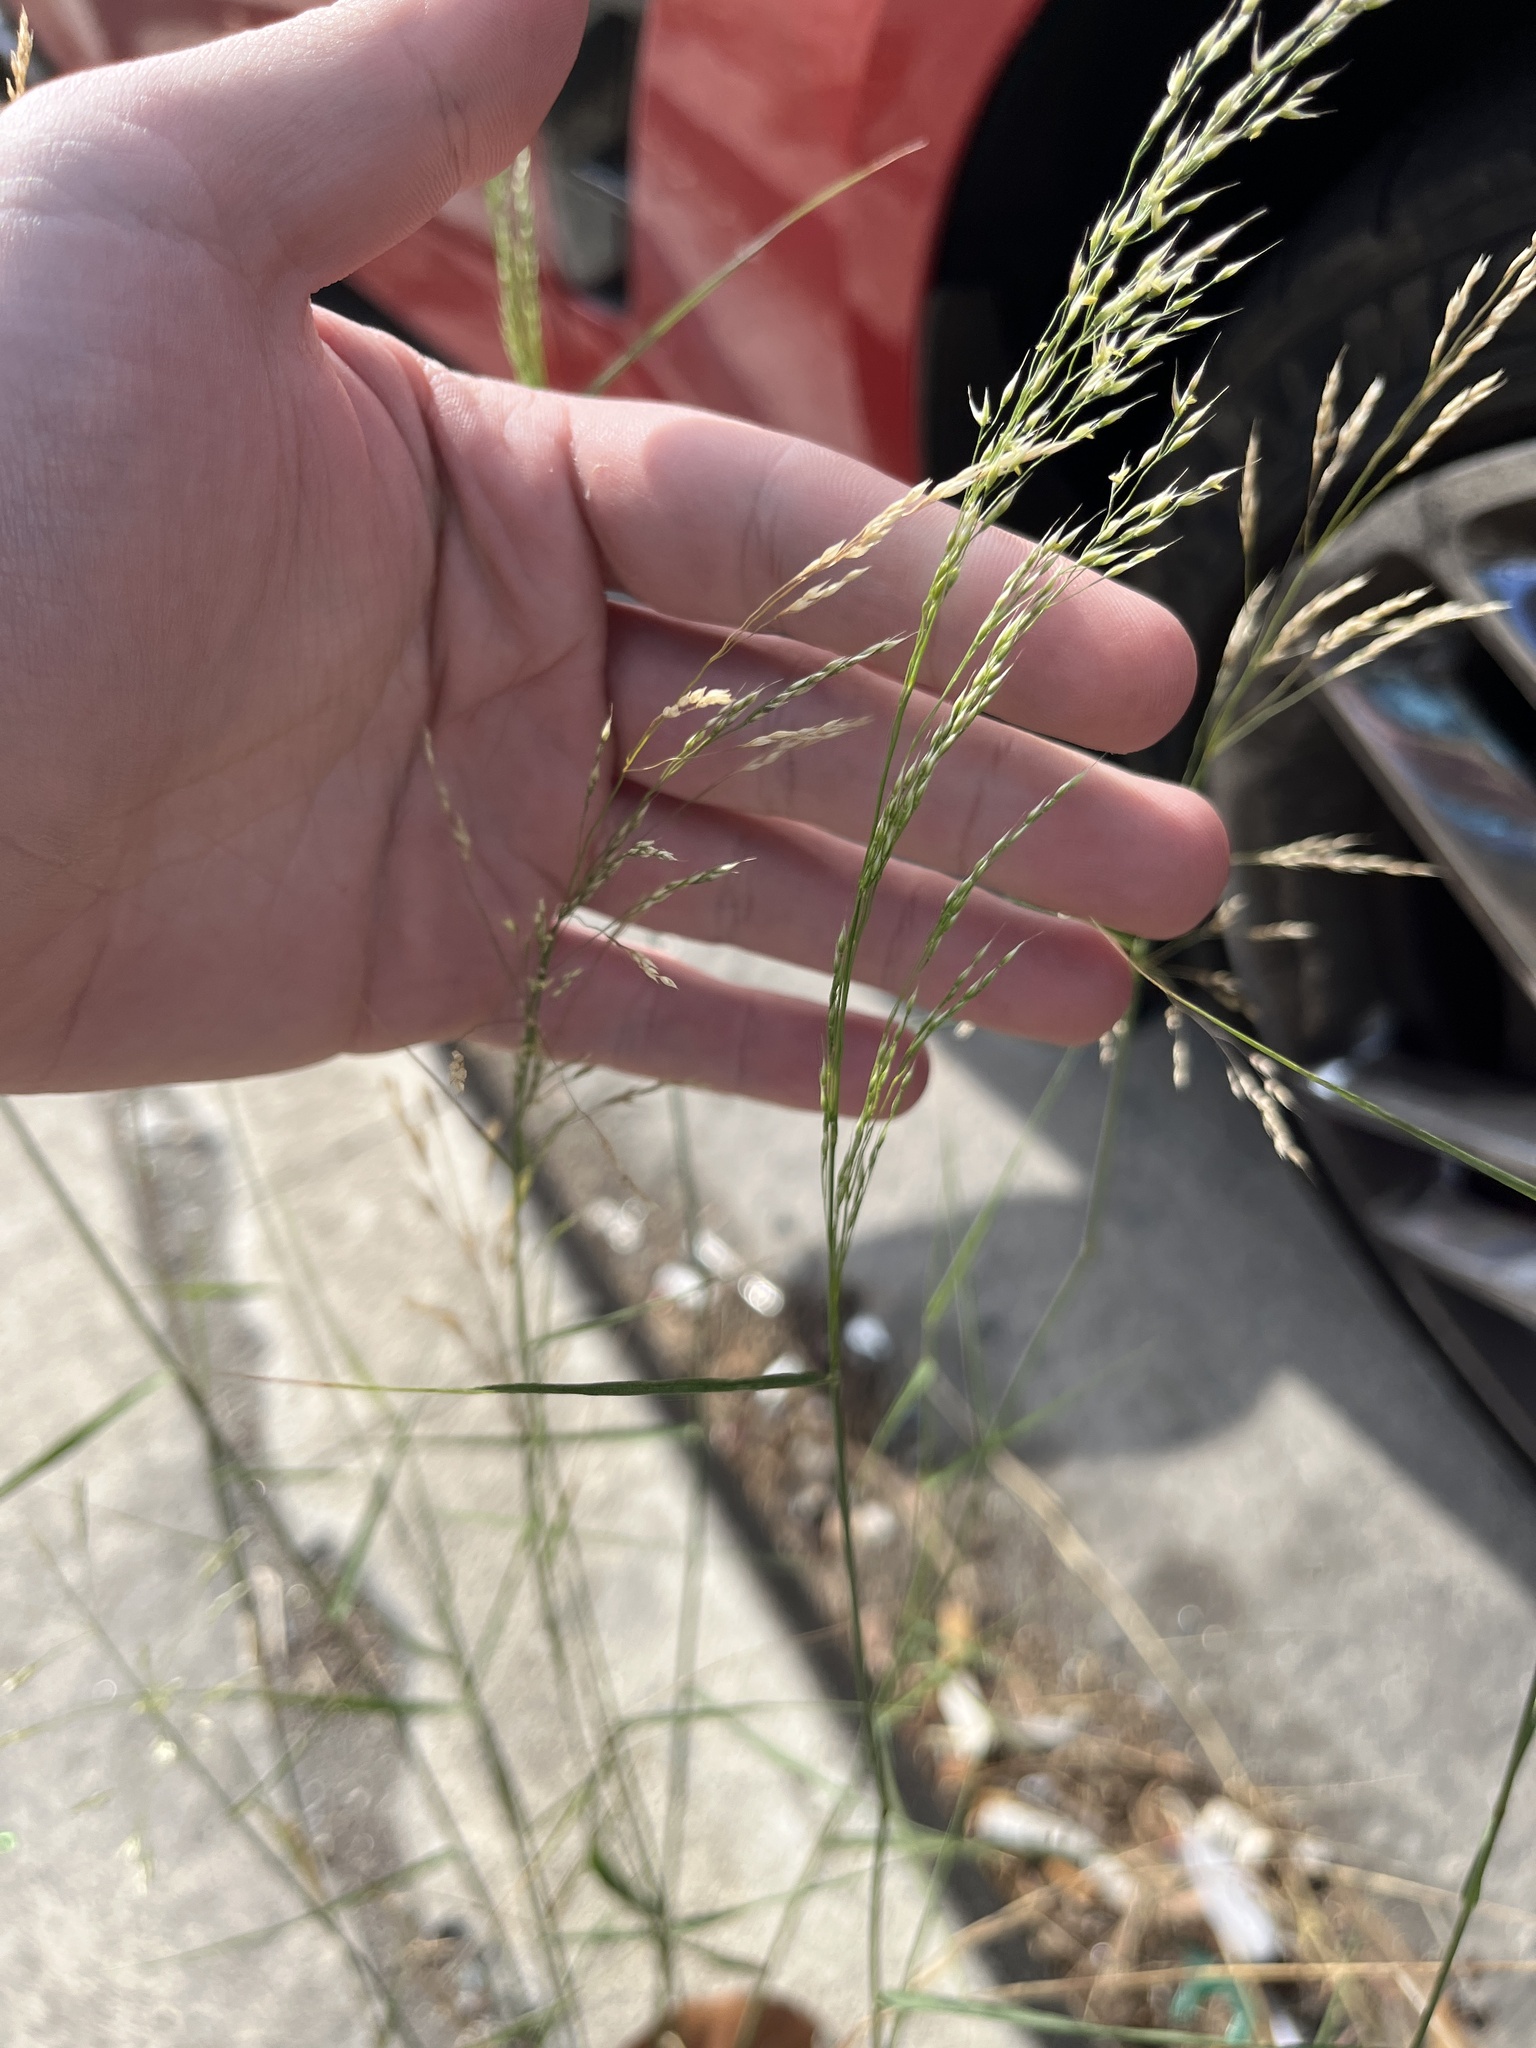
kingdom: Plantae
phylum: Tracheophyta
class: Liliopsida
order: Poales
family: Poaceae
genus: Oloptum
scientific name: Oloptum miliaceum
